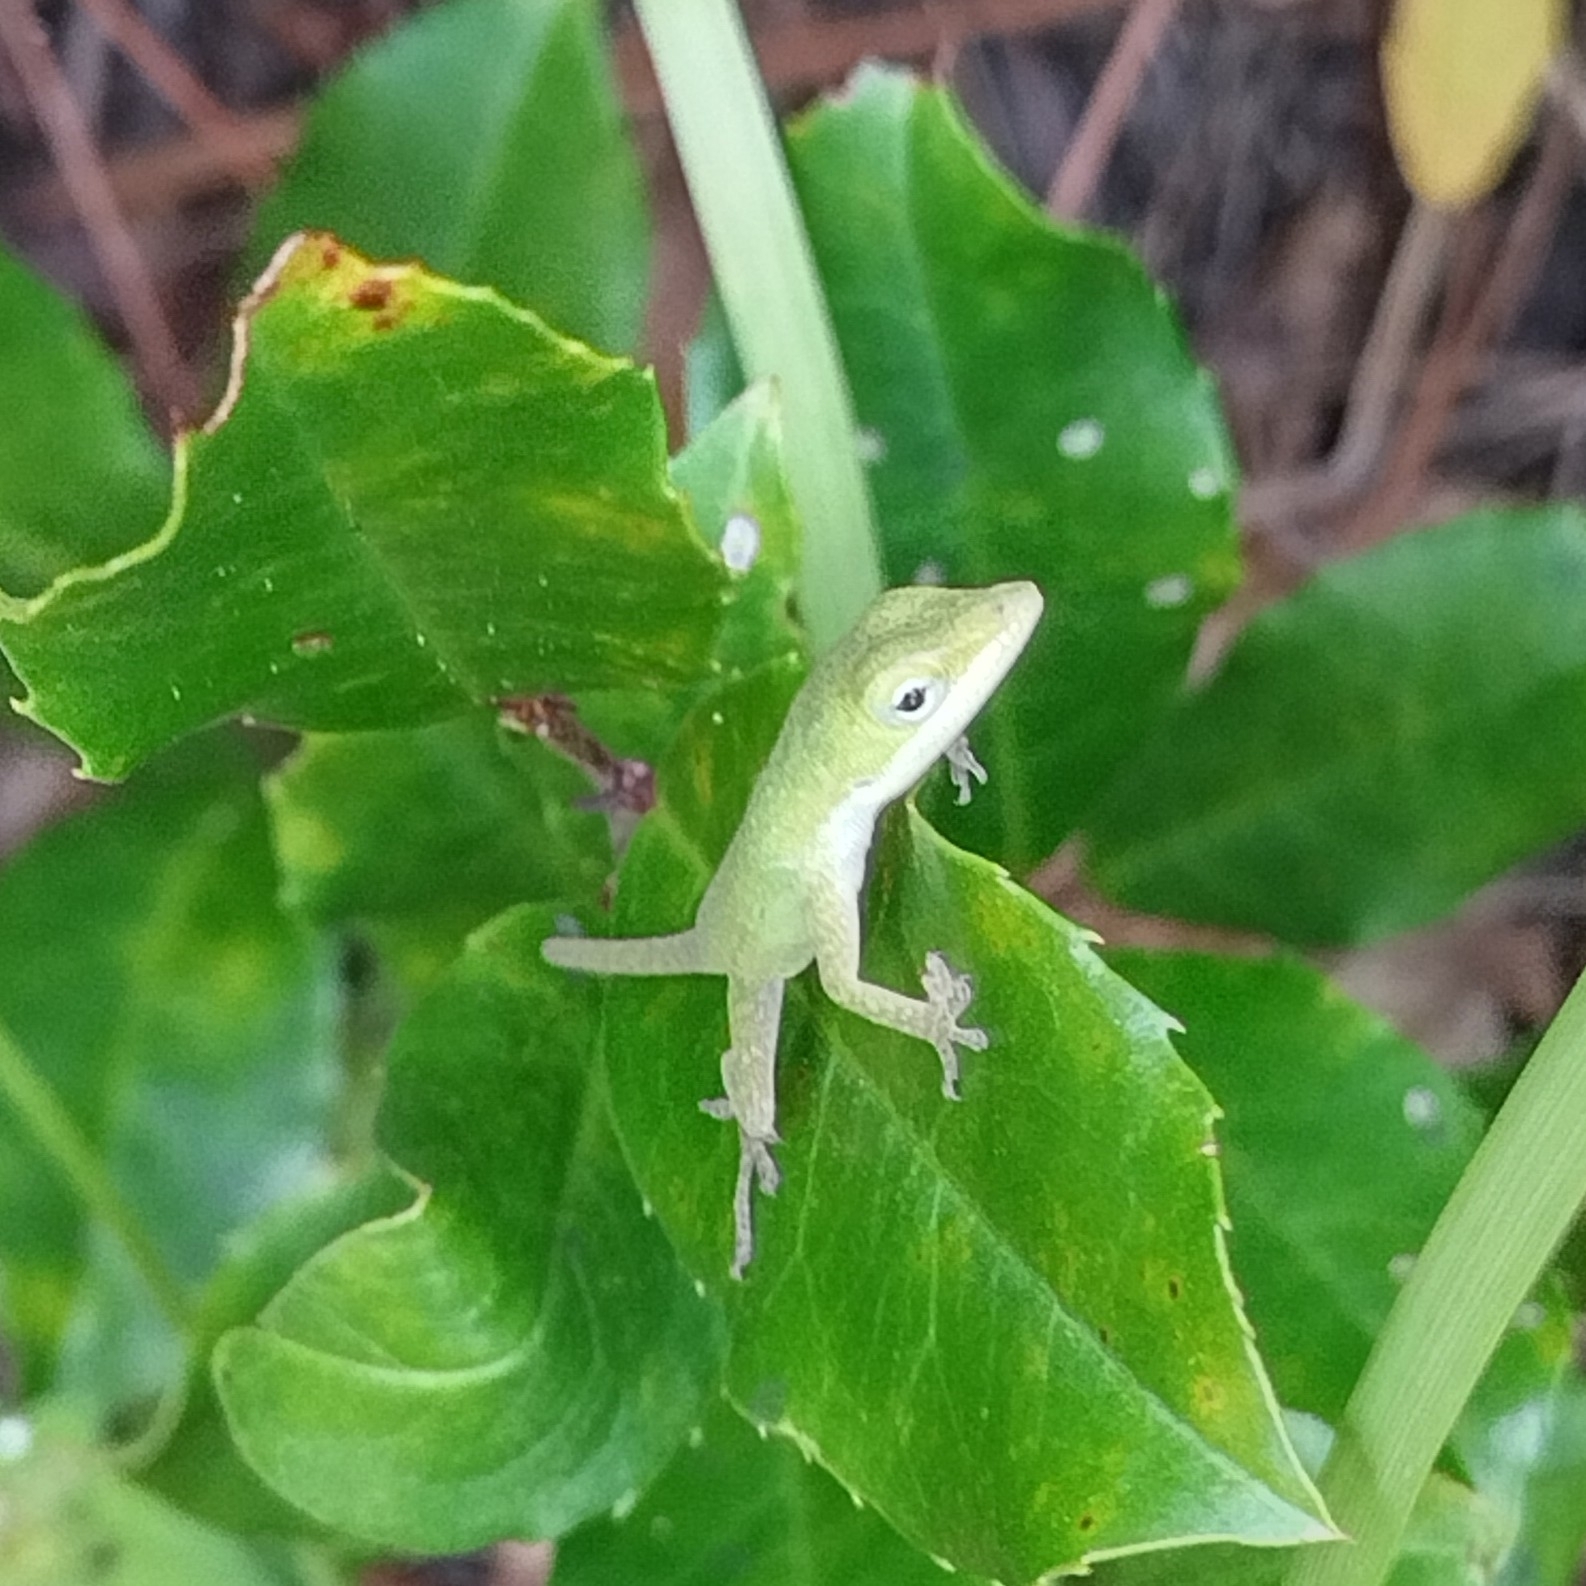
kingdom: Animalia
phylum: Chordata
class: Squamata
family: Dactyloidae
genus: Anolis
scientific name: Anolis carolinensis
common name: Green anole
